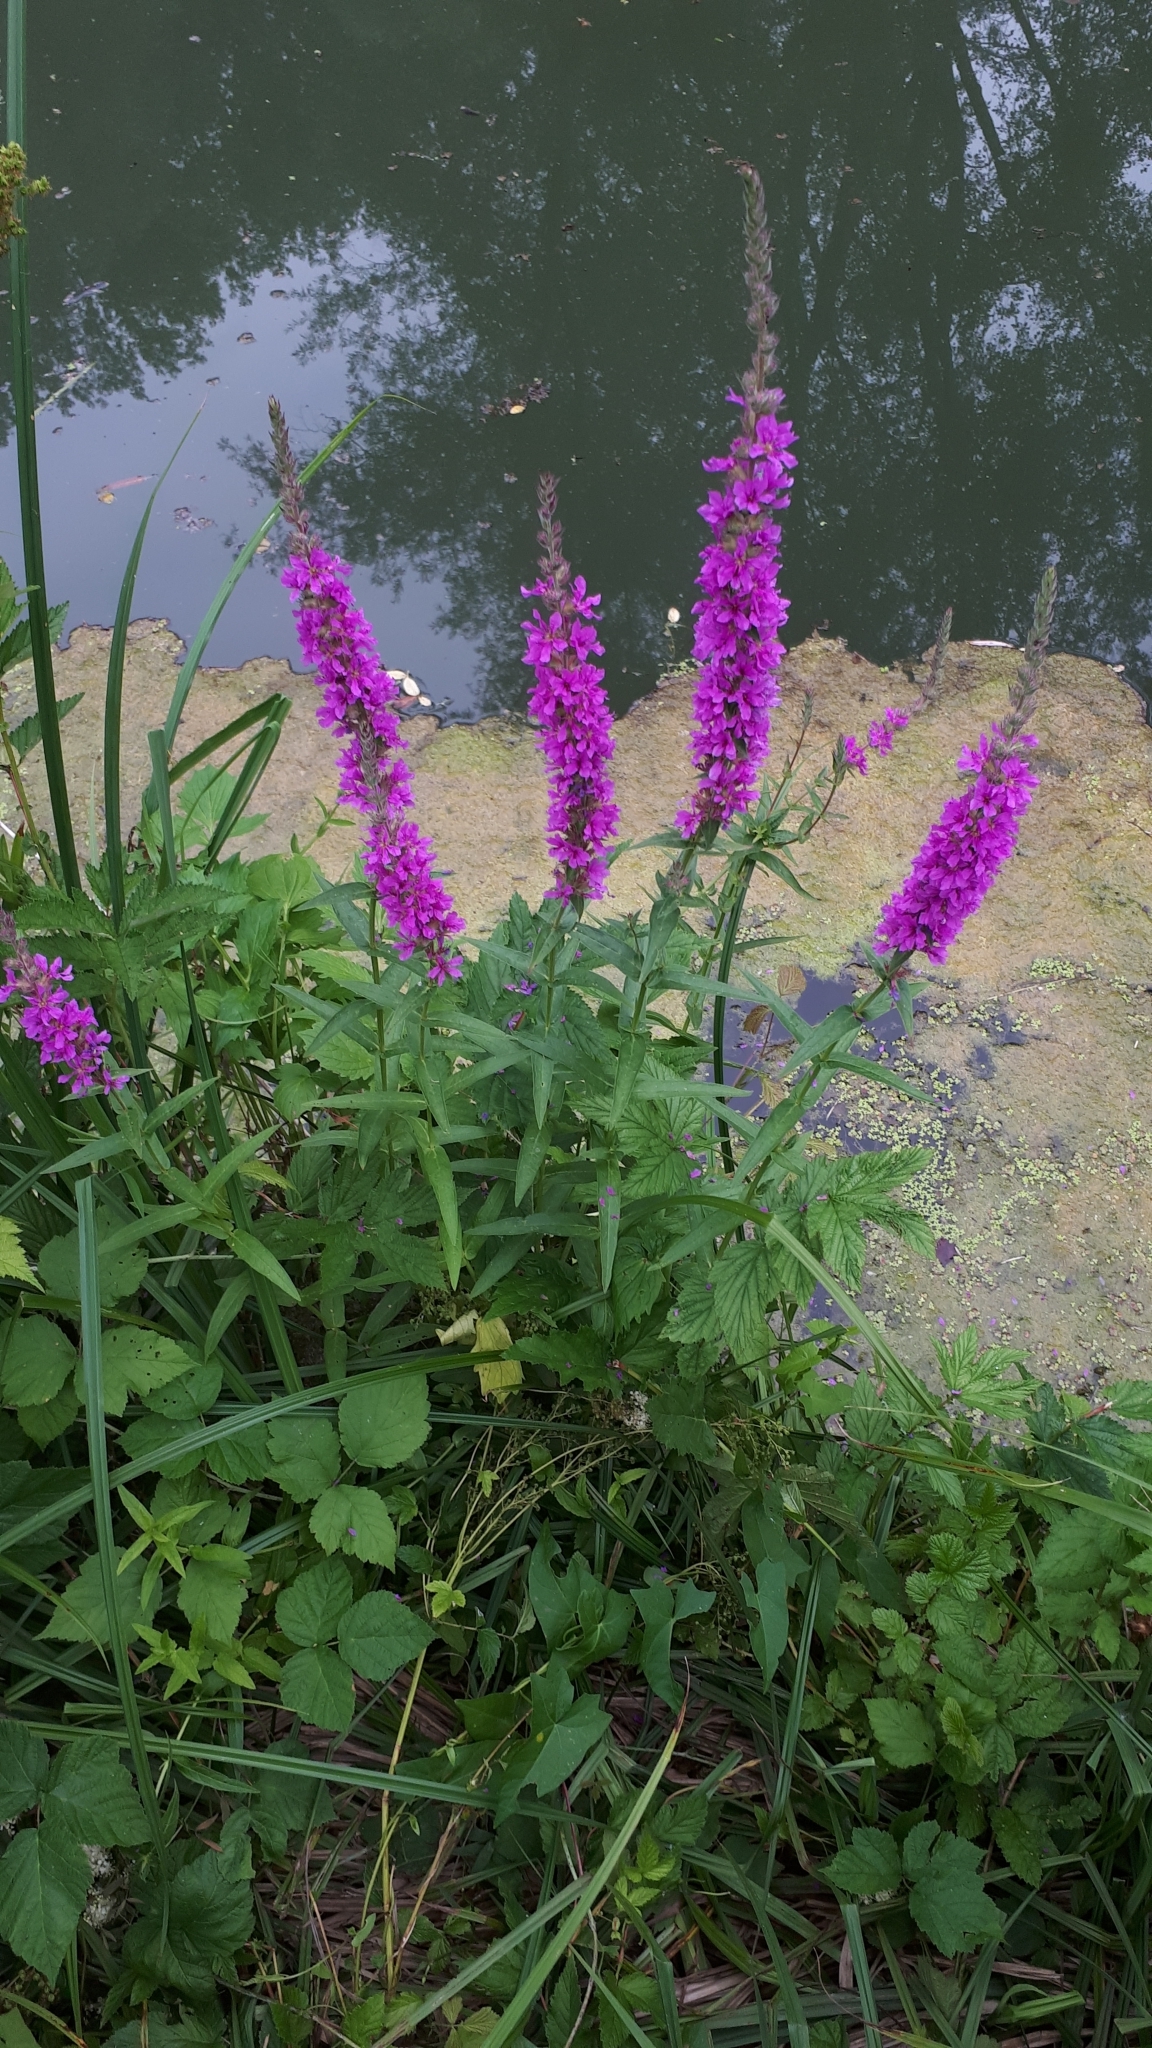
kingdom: Plantae
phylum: Tracheophyta
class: Magnoliopsida
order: Myrtales
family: Lythraceae
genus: Lythrum
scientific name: Lythrum salicaria
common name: Purple loosestrife
